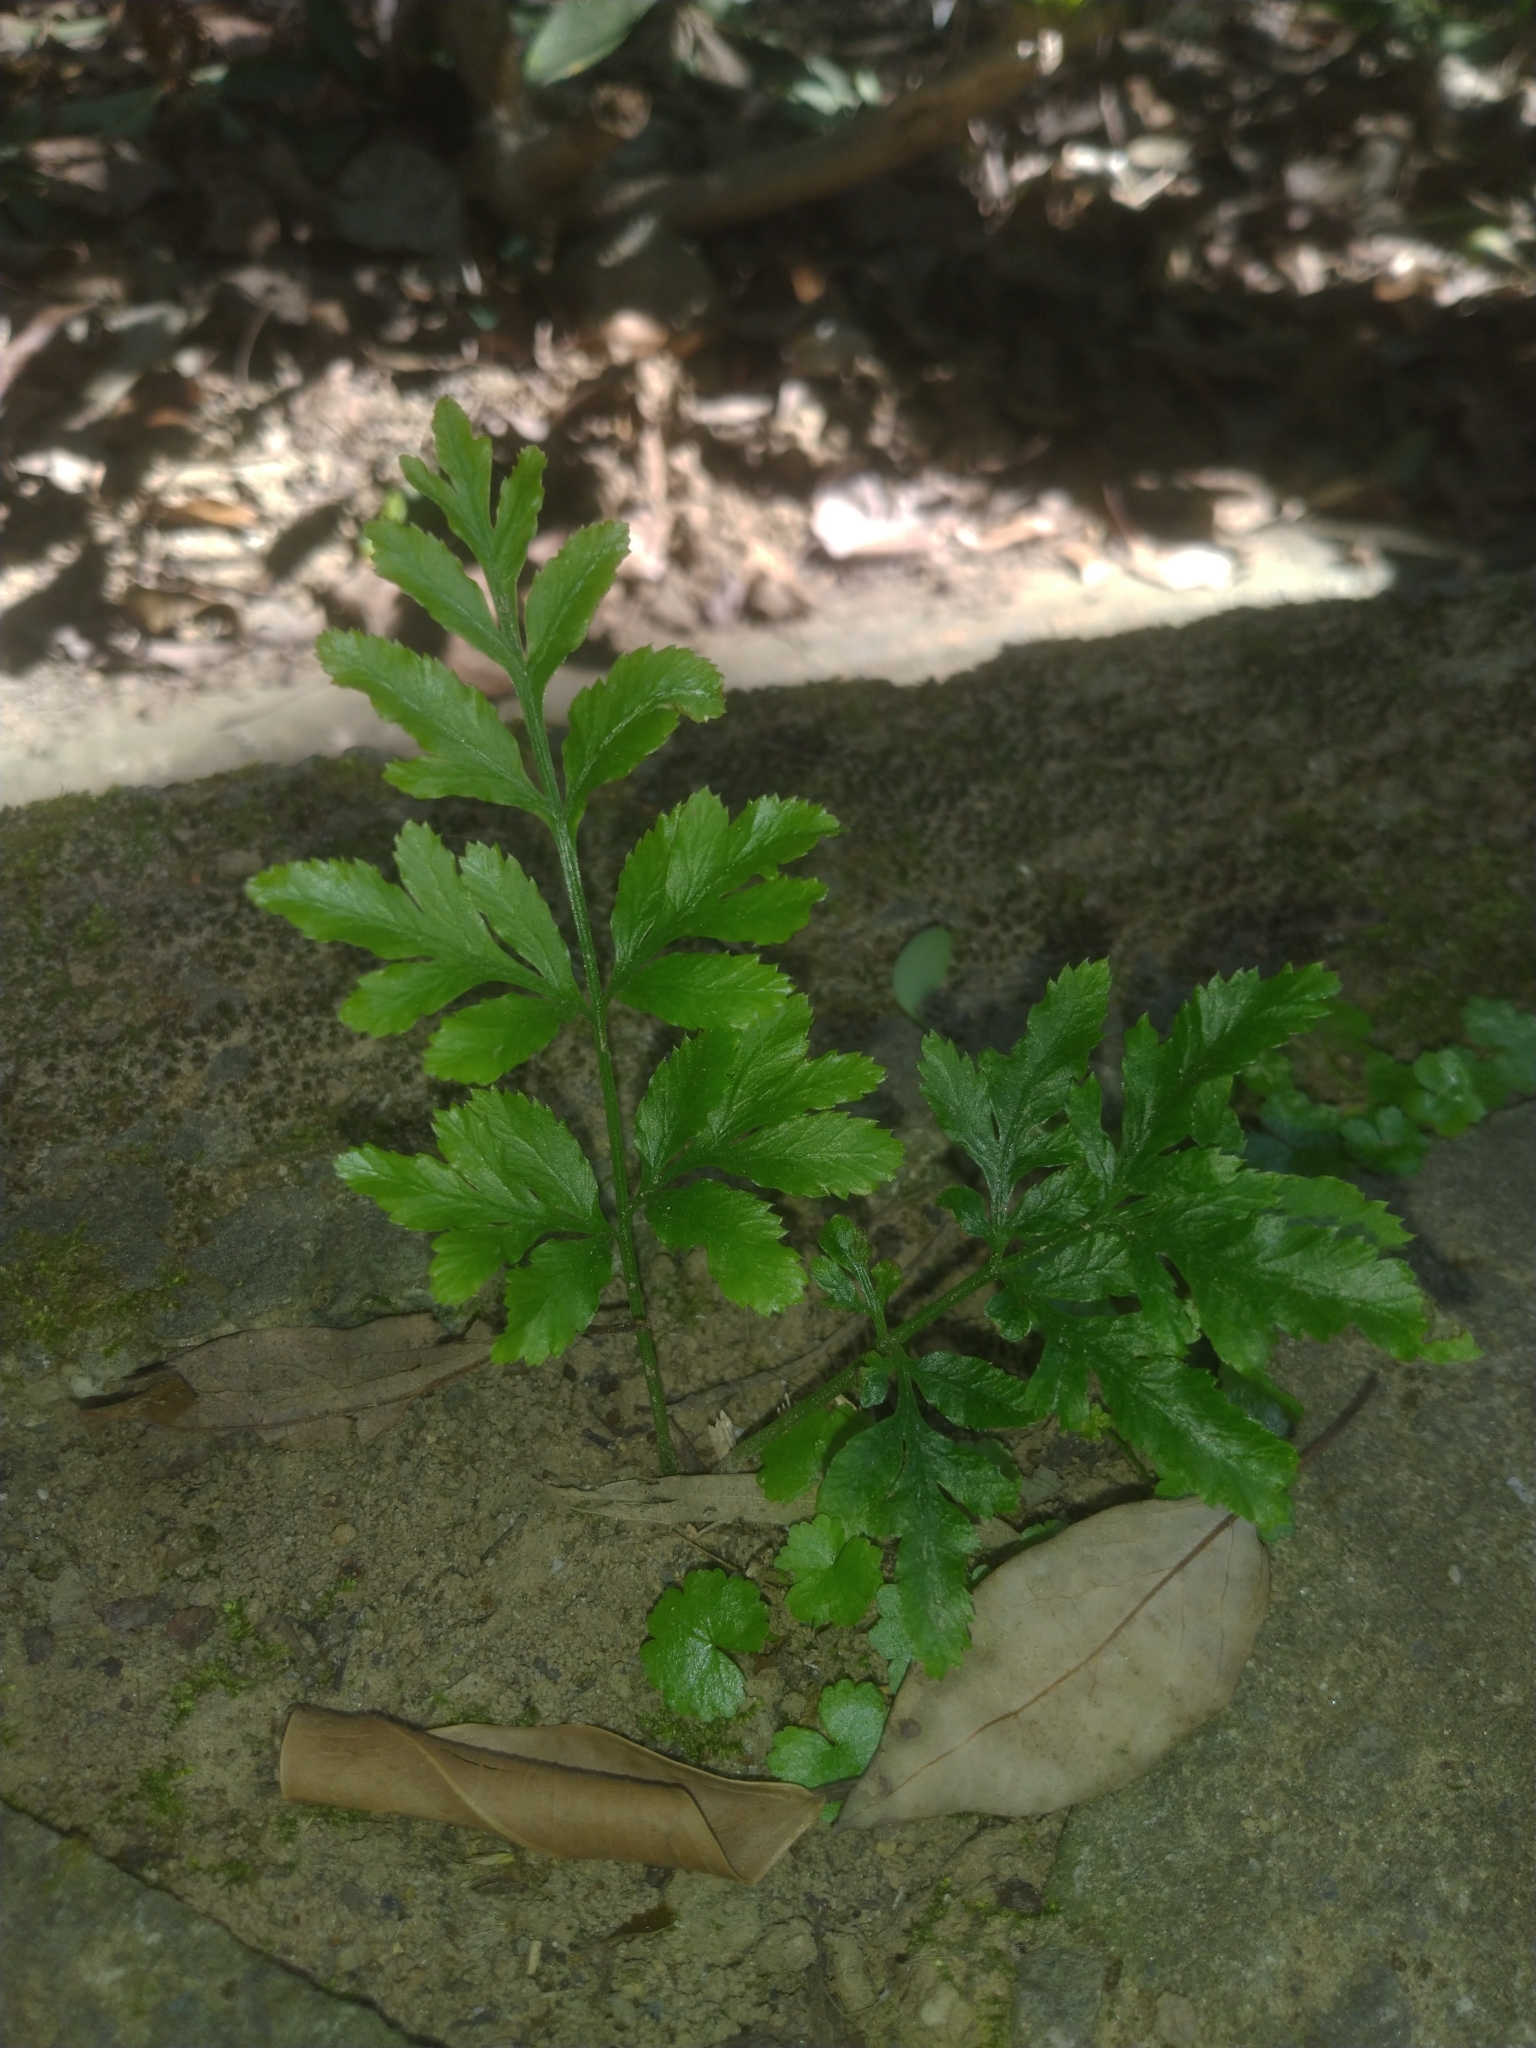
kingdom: Plantae
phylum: Tracheophyta
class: Polypodiopsida
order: Polypodiales
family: Pteridaceae
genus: Pteris
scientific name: Pteris ensiformis
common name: Sword brake
